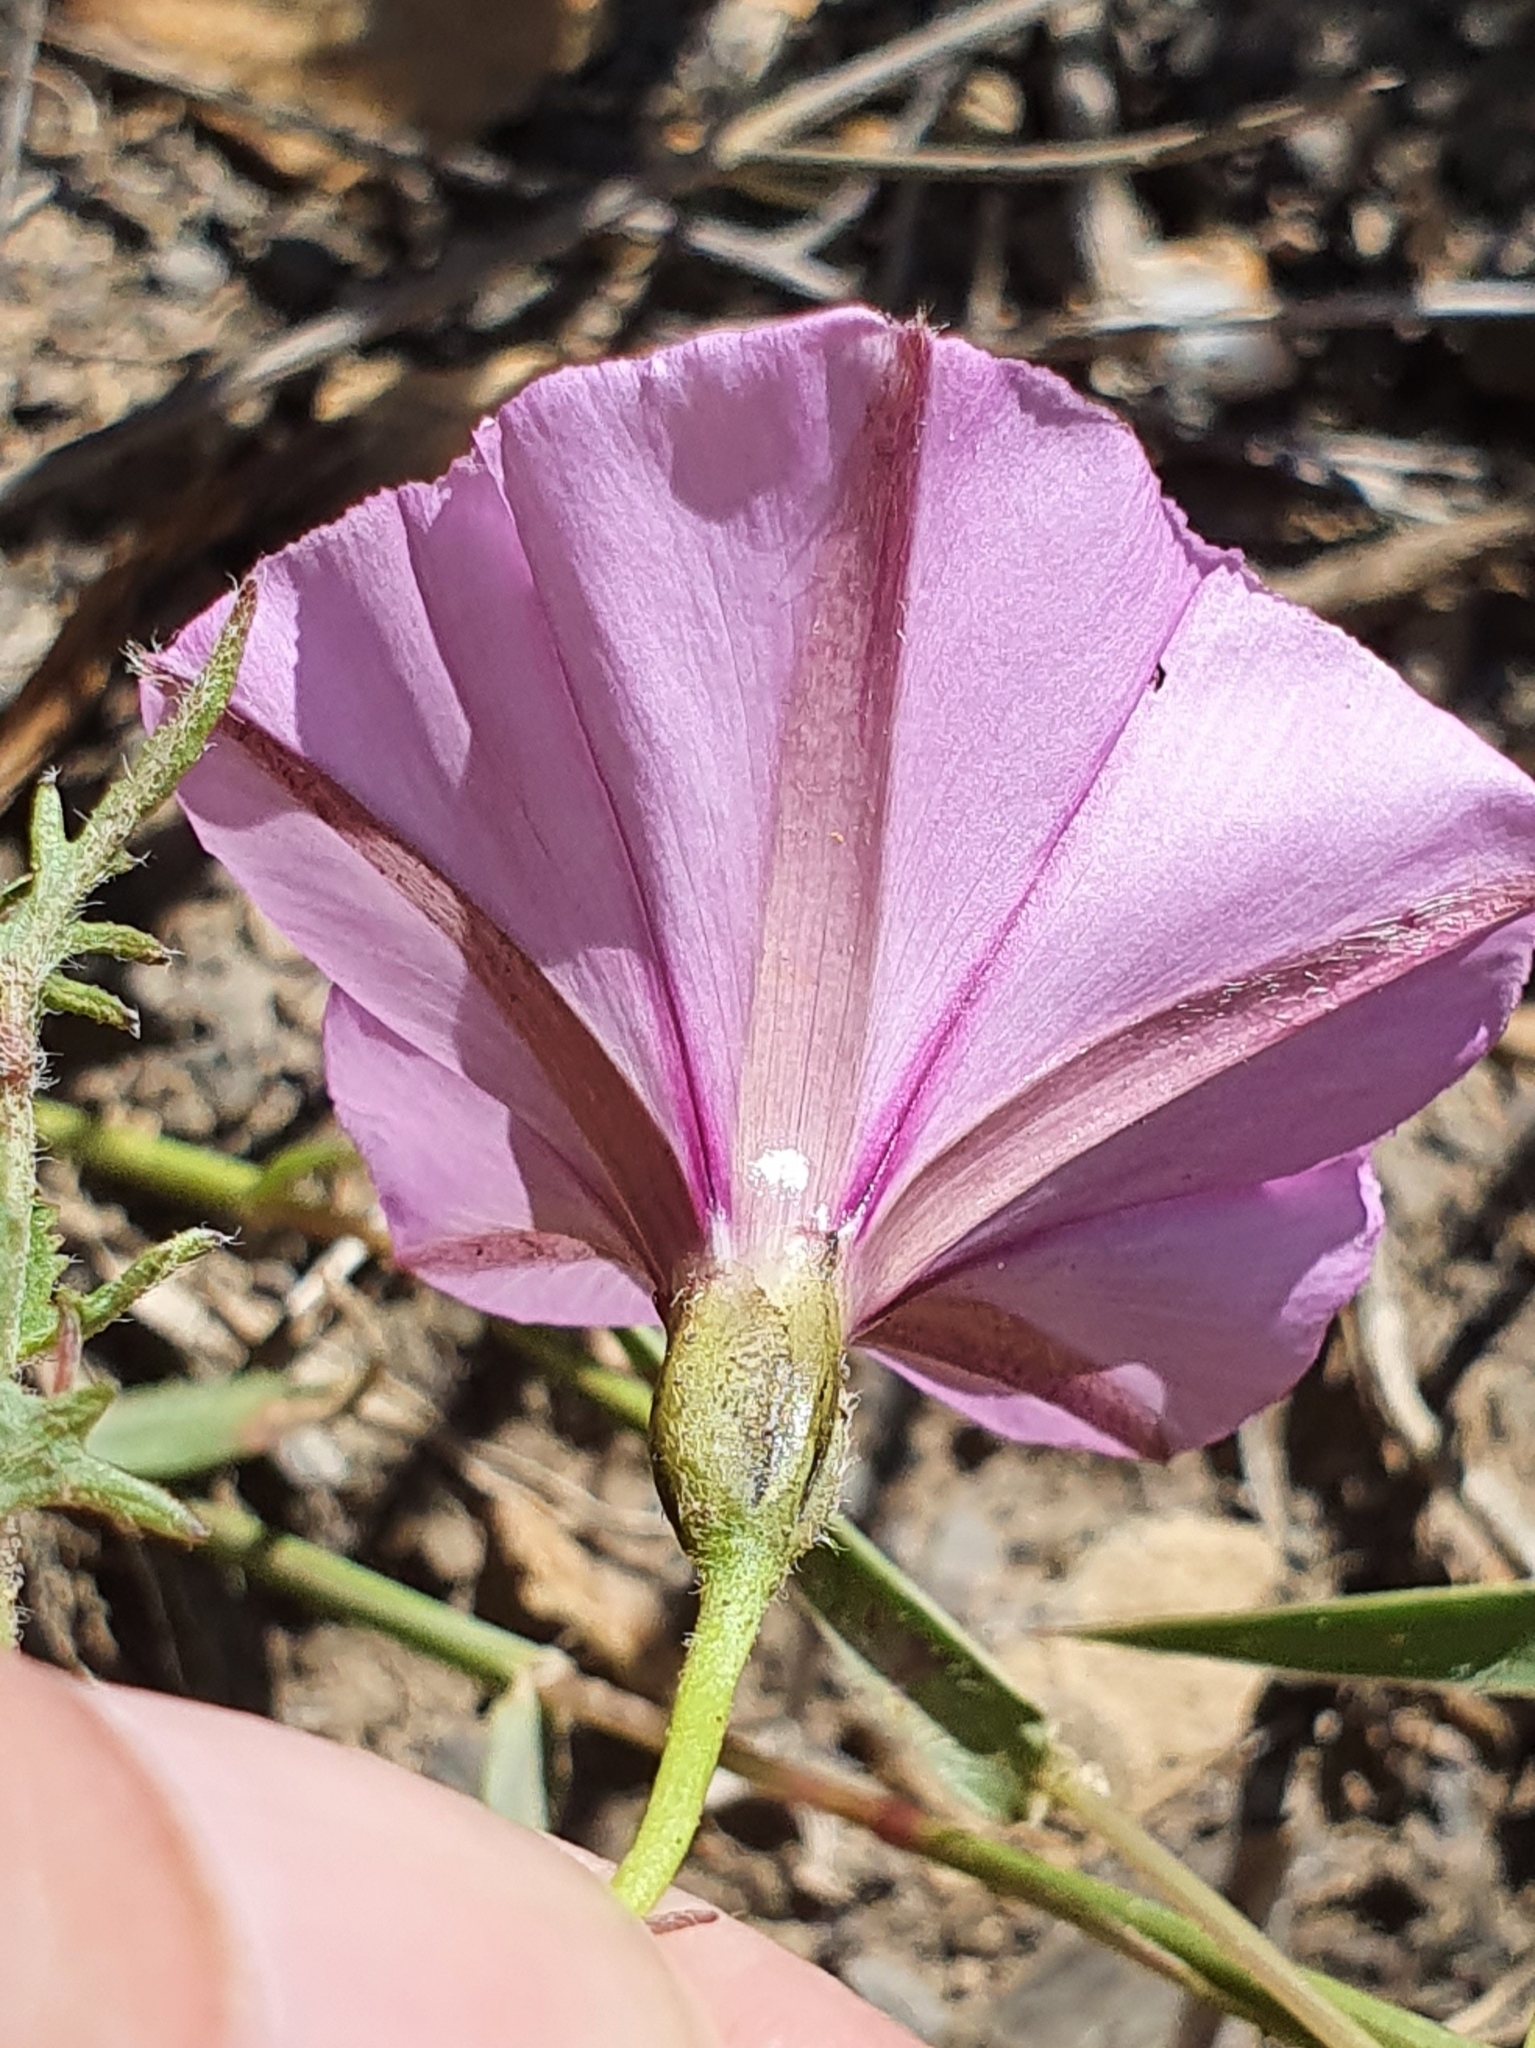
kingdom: Plantae
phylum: Tracheophyta
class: Magnoliopsida
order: Solanales
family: Convolvulaceae
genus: Convolvulus
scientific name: Convolvulus althaeoides
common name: Mallow bindweed
